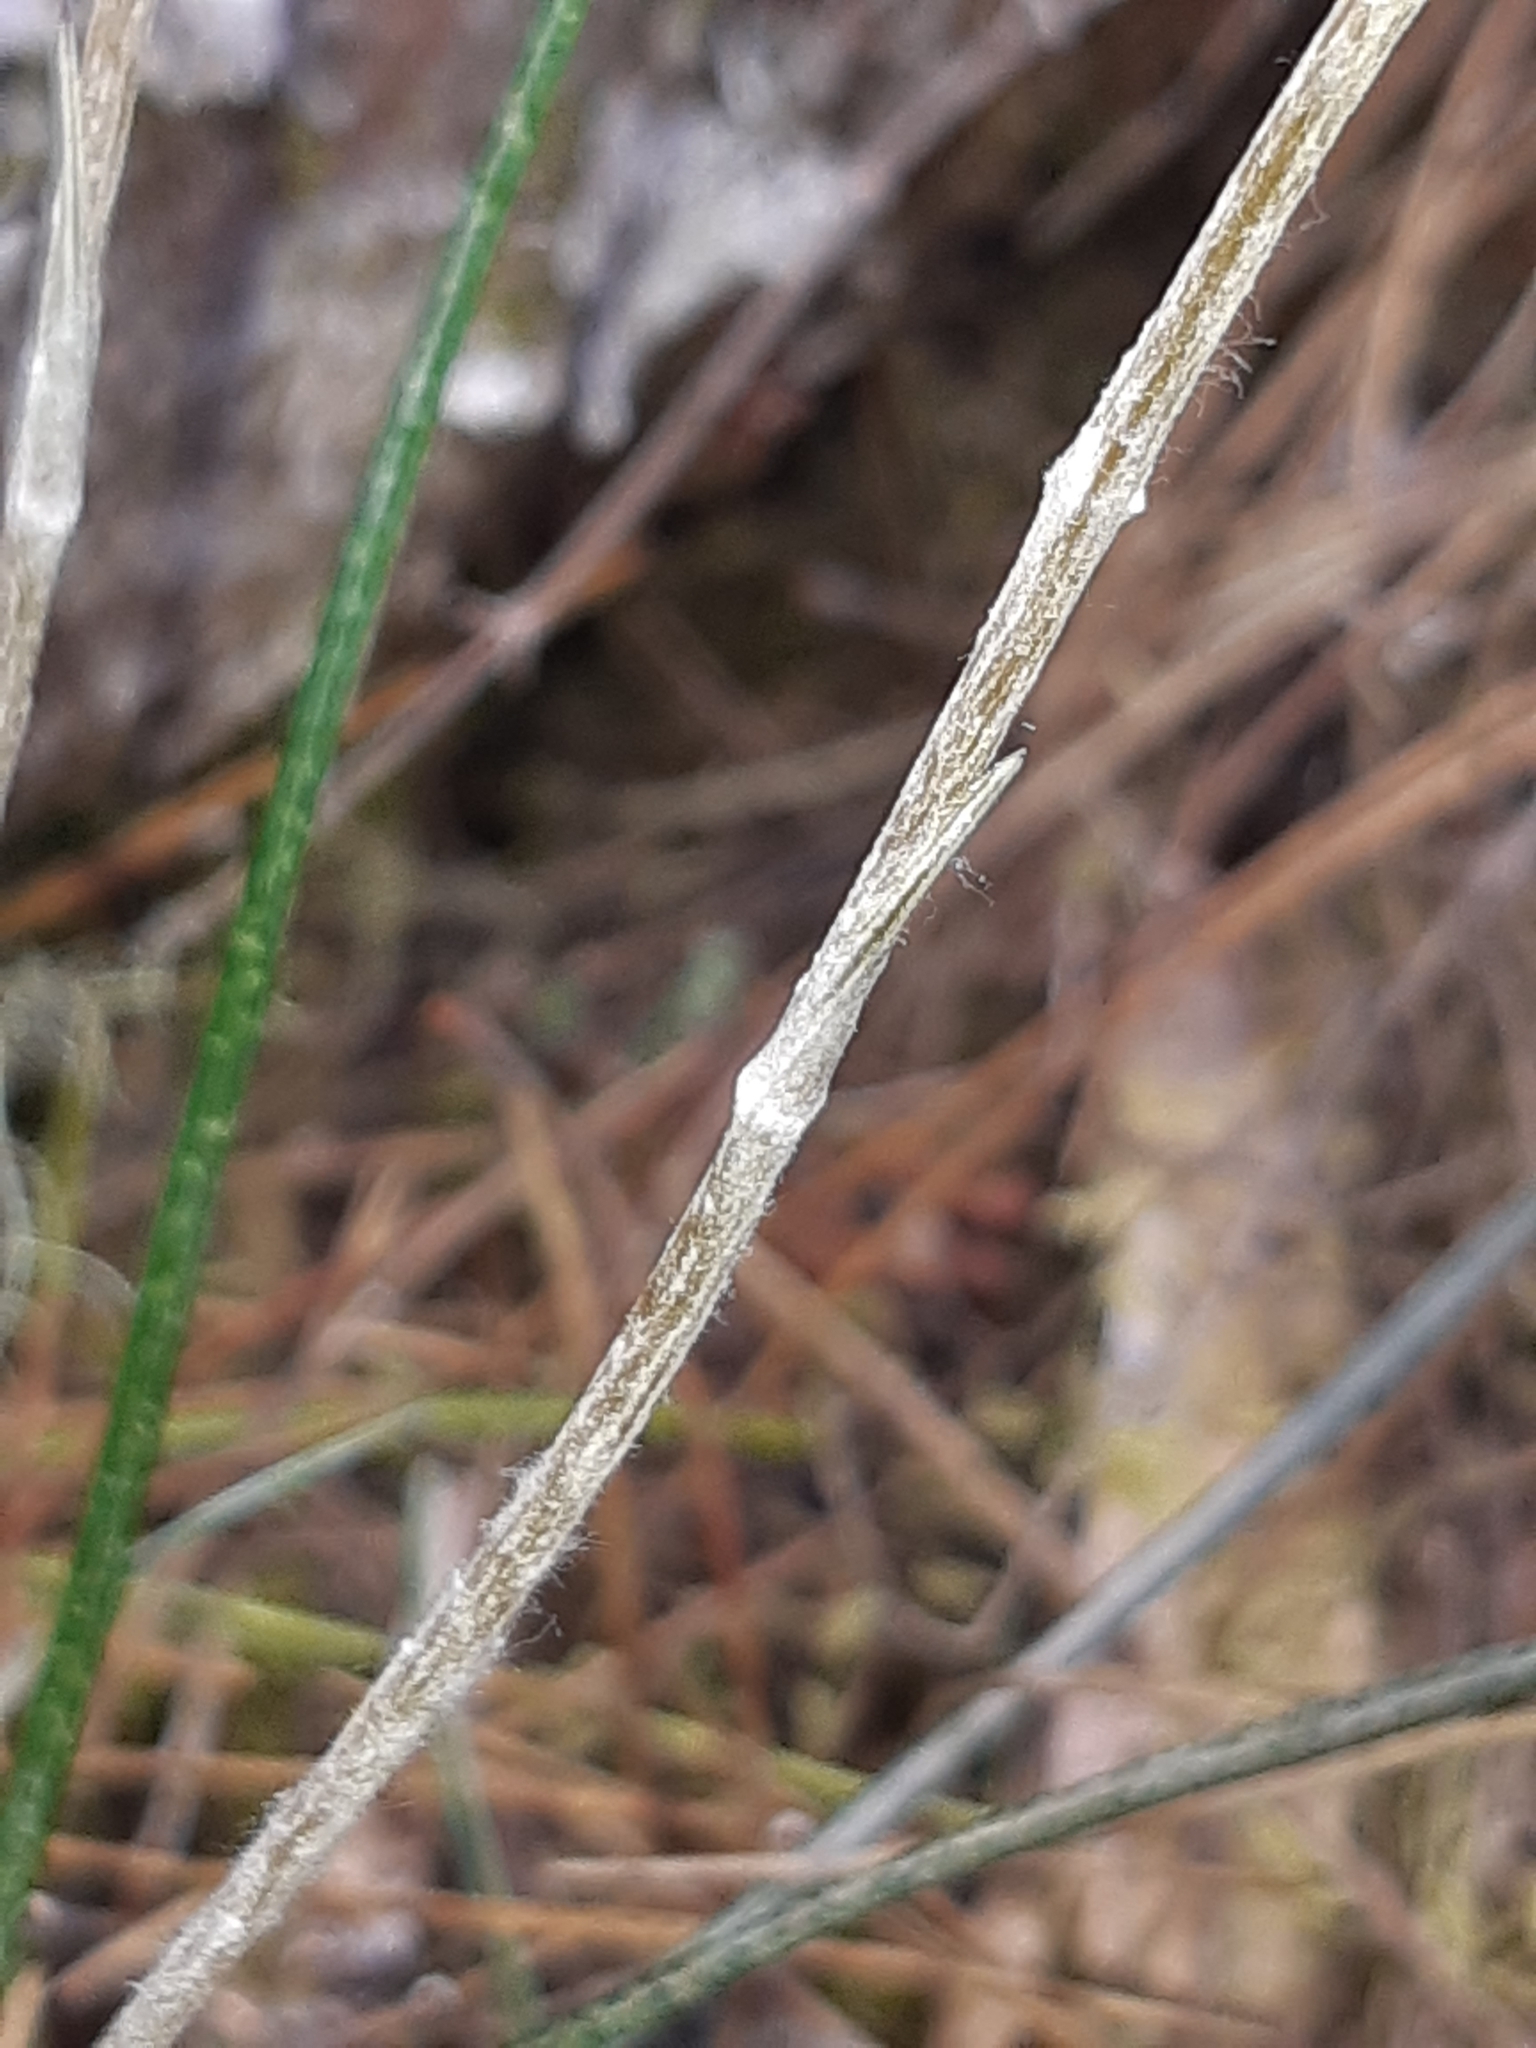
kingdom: Plantae
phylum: Tracheophyta
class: Magnoliopsida
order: Asterales
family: Asteraceae
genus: Celmisia
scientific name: Celmisia gracilenta
